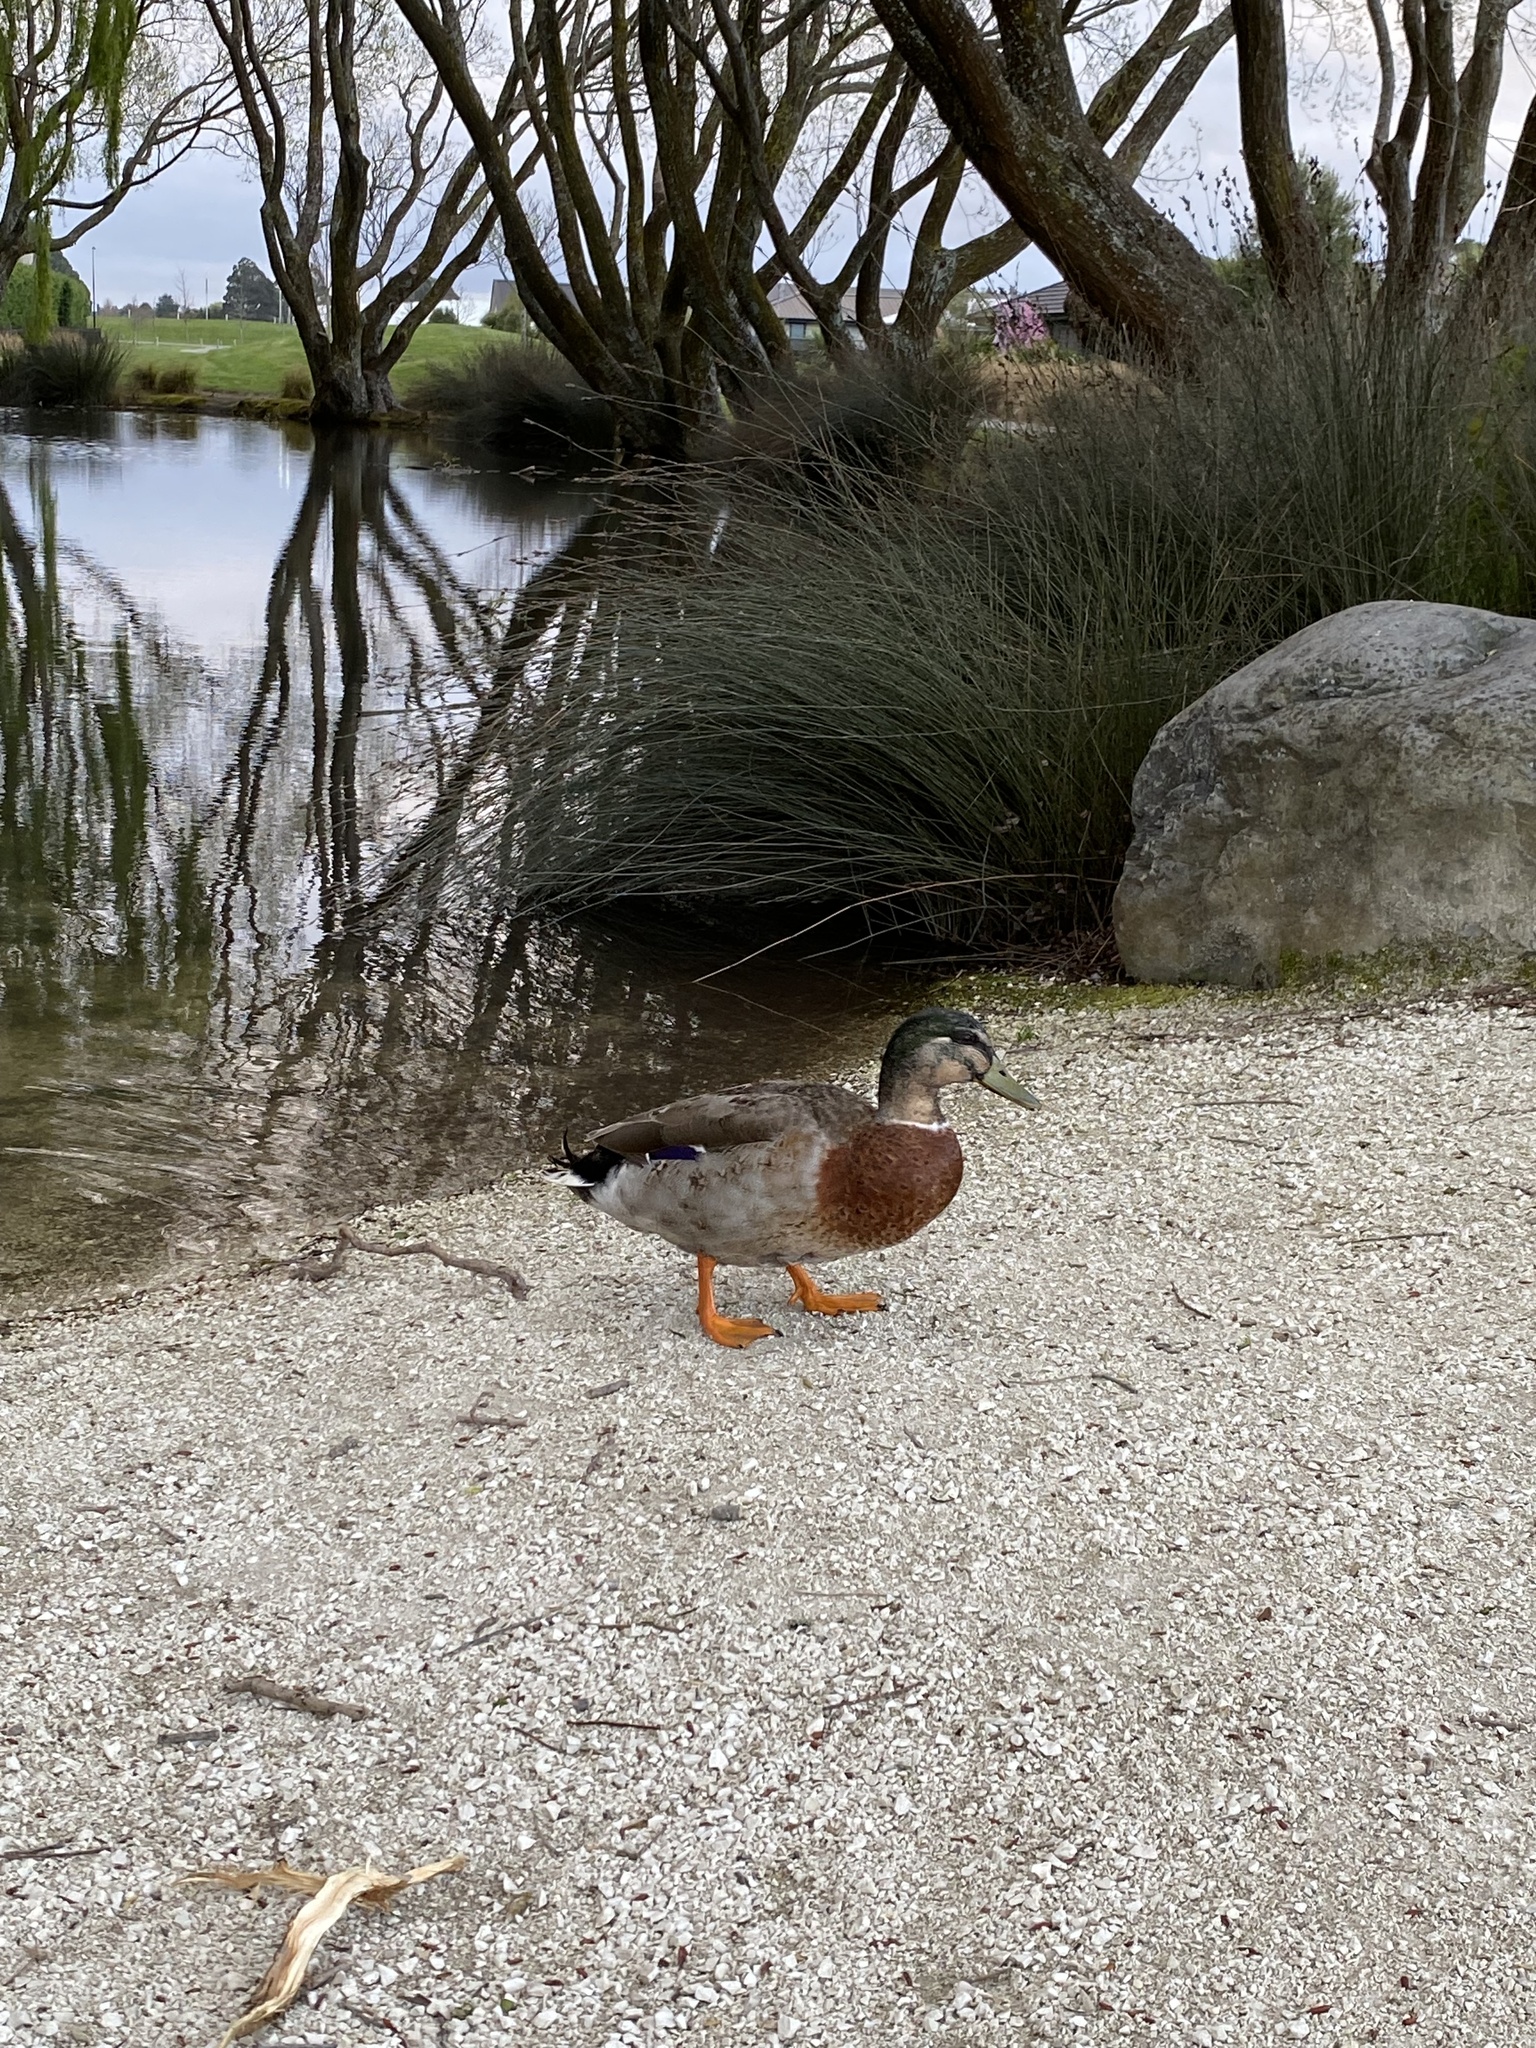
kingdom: Animalia
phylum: Chordata
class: Aves
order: Anseriformes
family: Anatidae
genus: Anas
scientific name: Anas platyrhynchos
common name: Mallard
